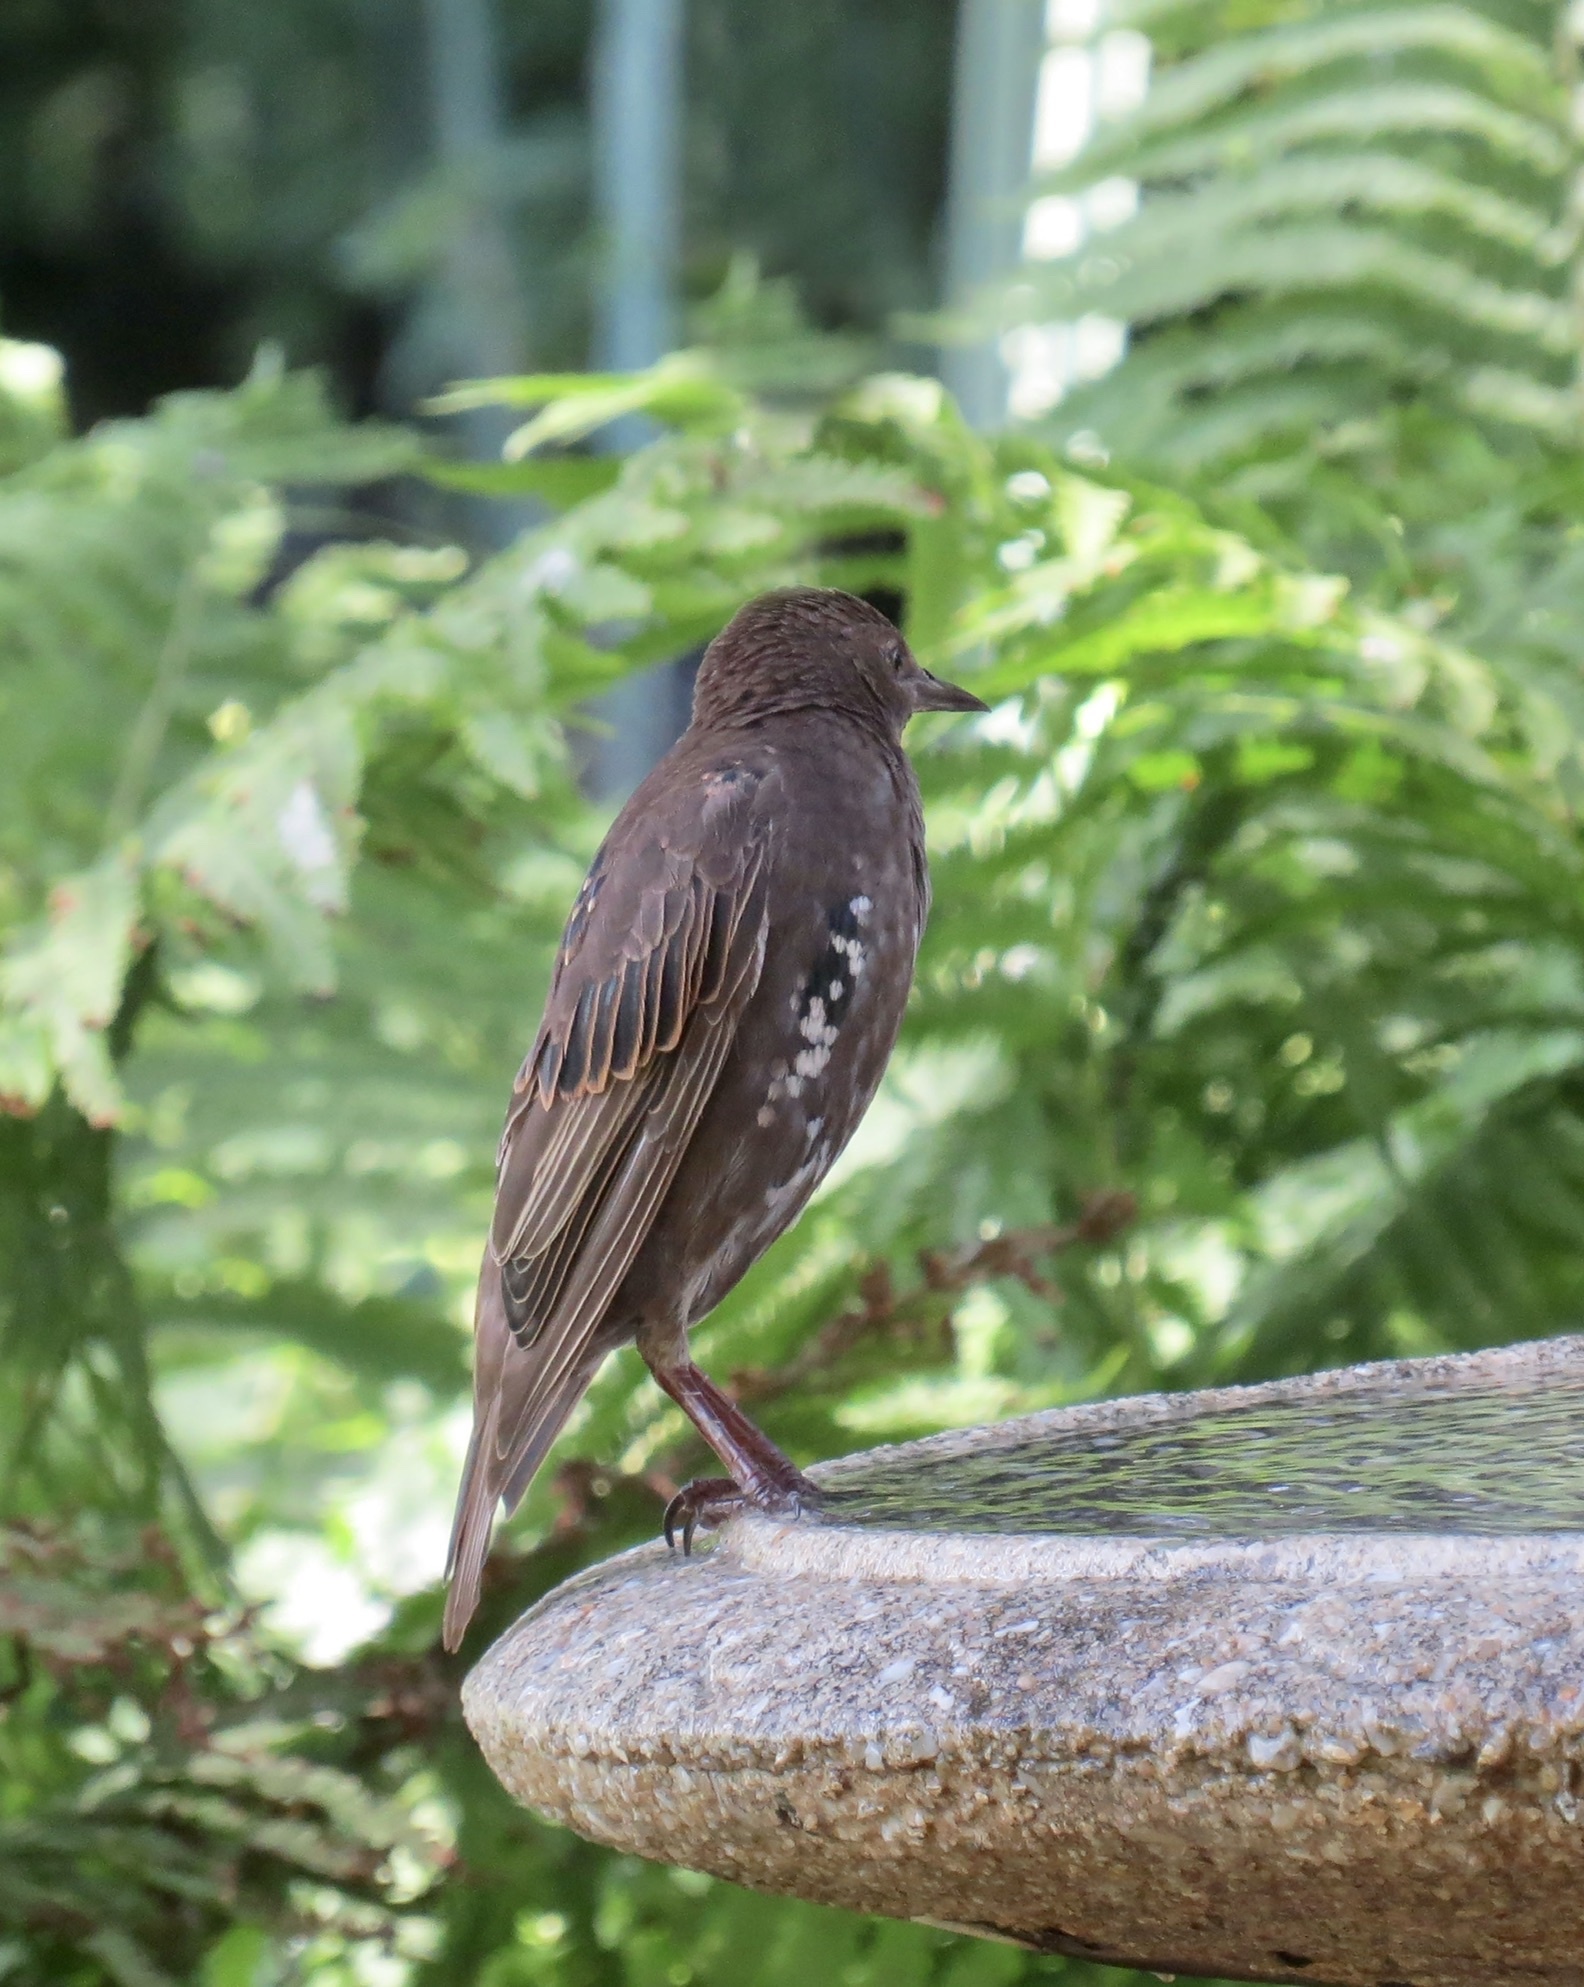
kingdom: Animalia
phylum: Chordata
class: Aves
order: Passeriformes
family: Sturnidae
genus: Sturnus
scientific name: Sturnus vulgaris
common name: Common starling
